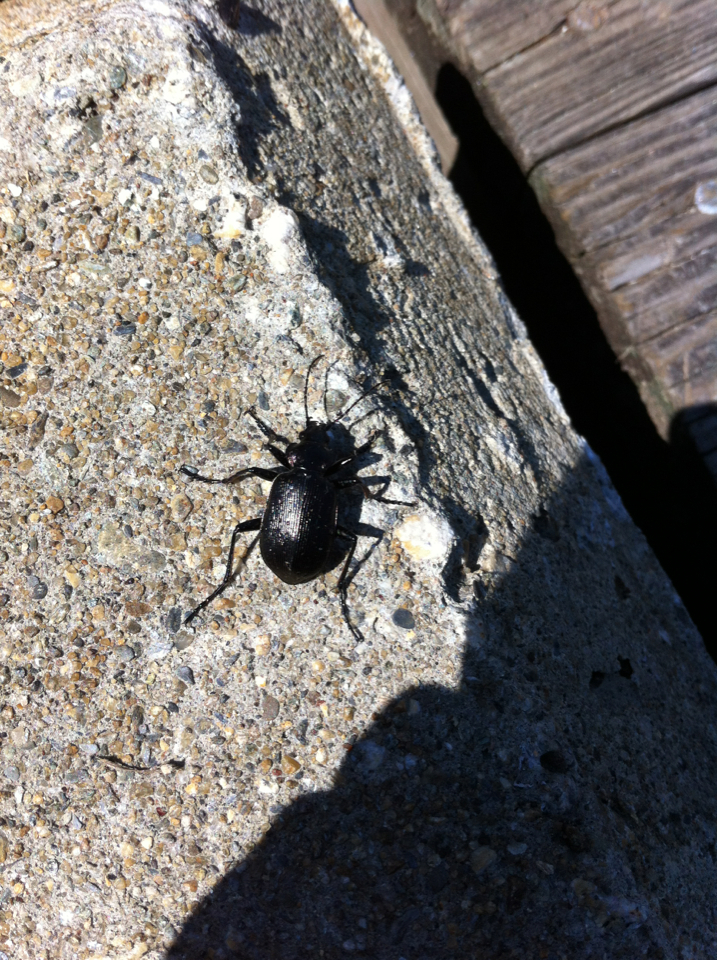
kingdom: Animalia
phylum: Arthropoda
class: Insecta
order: Coleoptera
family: Carabidae
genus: Calosoma
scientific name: Calosoma frigidum
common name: Cold-country caterpillar hunter
